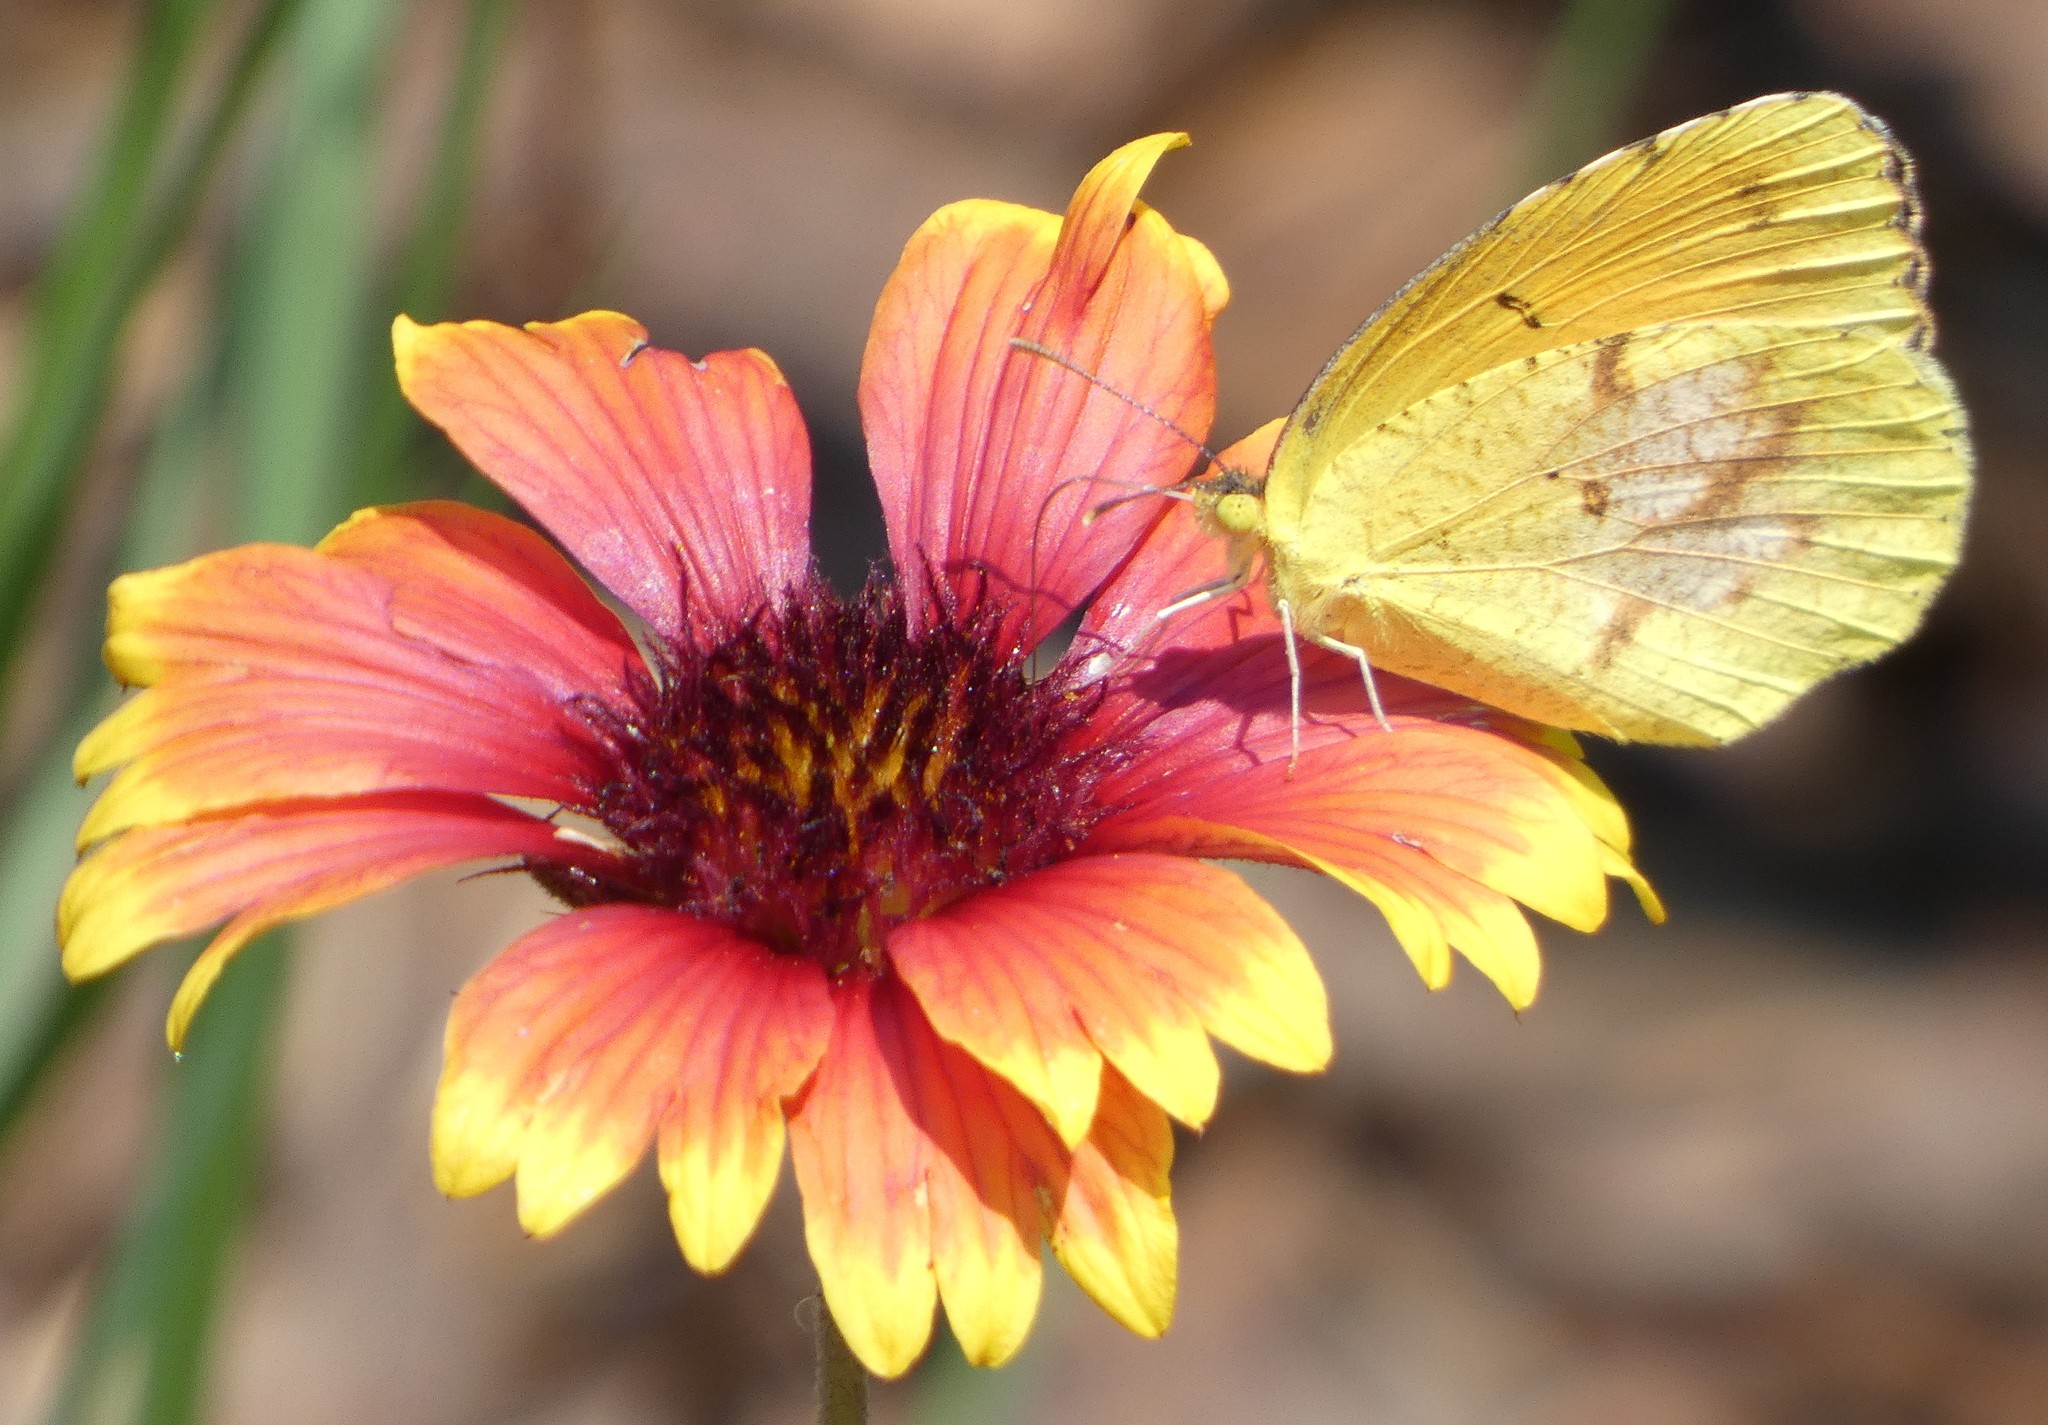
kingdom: Animalia
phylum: Arthropoda
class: Insecta
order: Lepidoptera
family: Pieridae
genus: Abaeis
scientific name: Abaeis nicippe
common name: Sleepy orange
